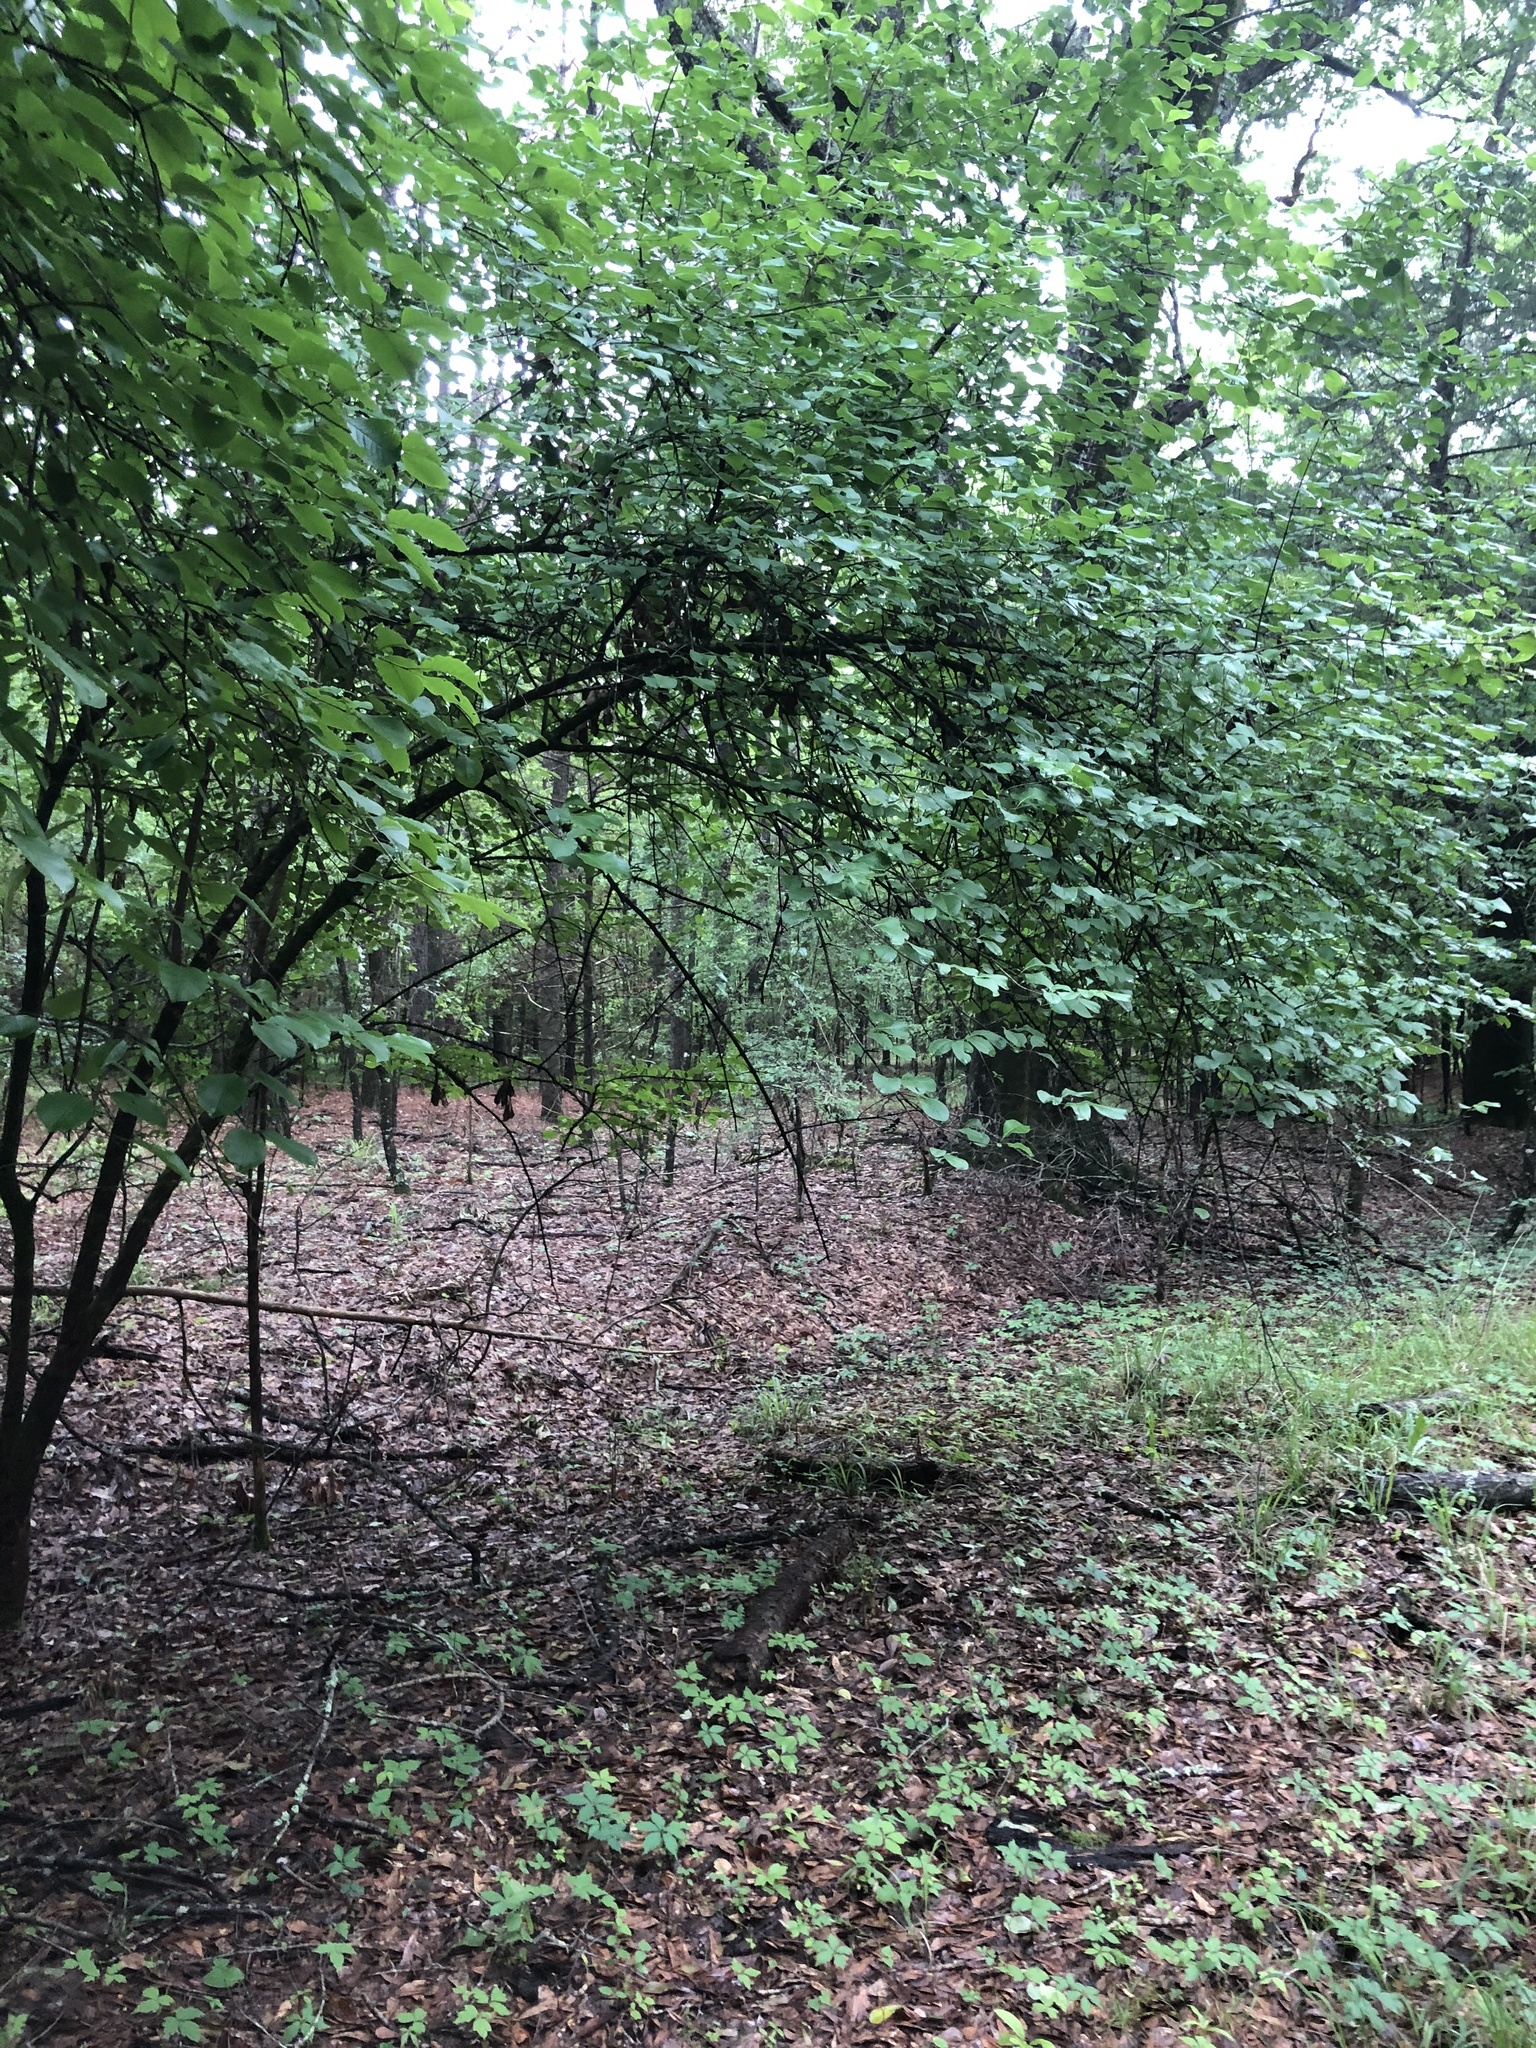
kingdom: Plantae
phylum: Tracheophyta
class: Magnoliopsida
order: Dipsacales
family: Viburnaceae
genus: Viburnum
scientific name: Viburnum rufidulum
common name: Blue haw
